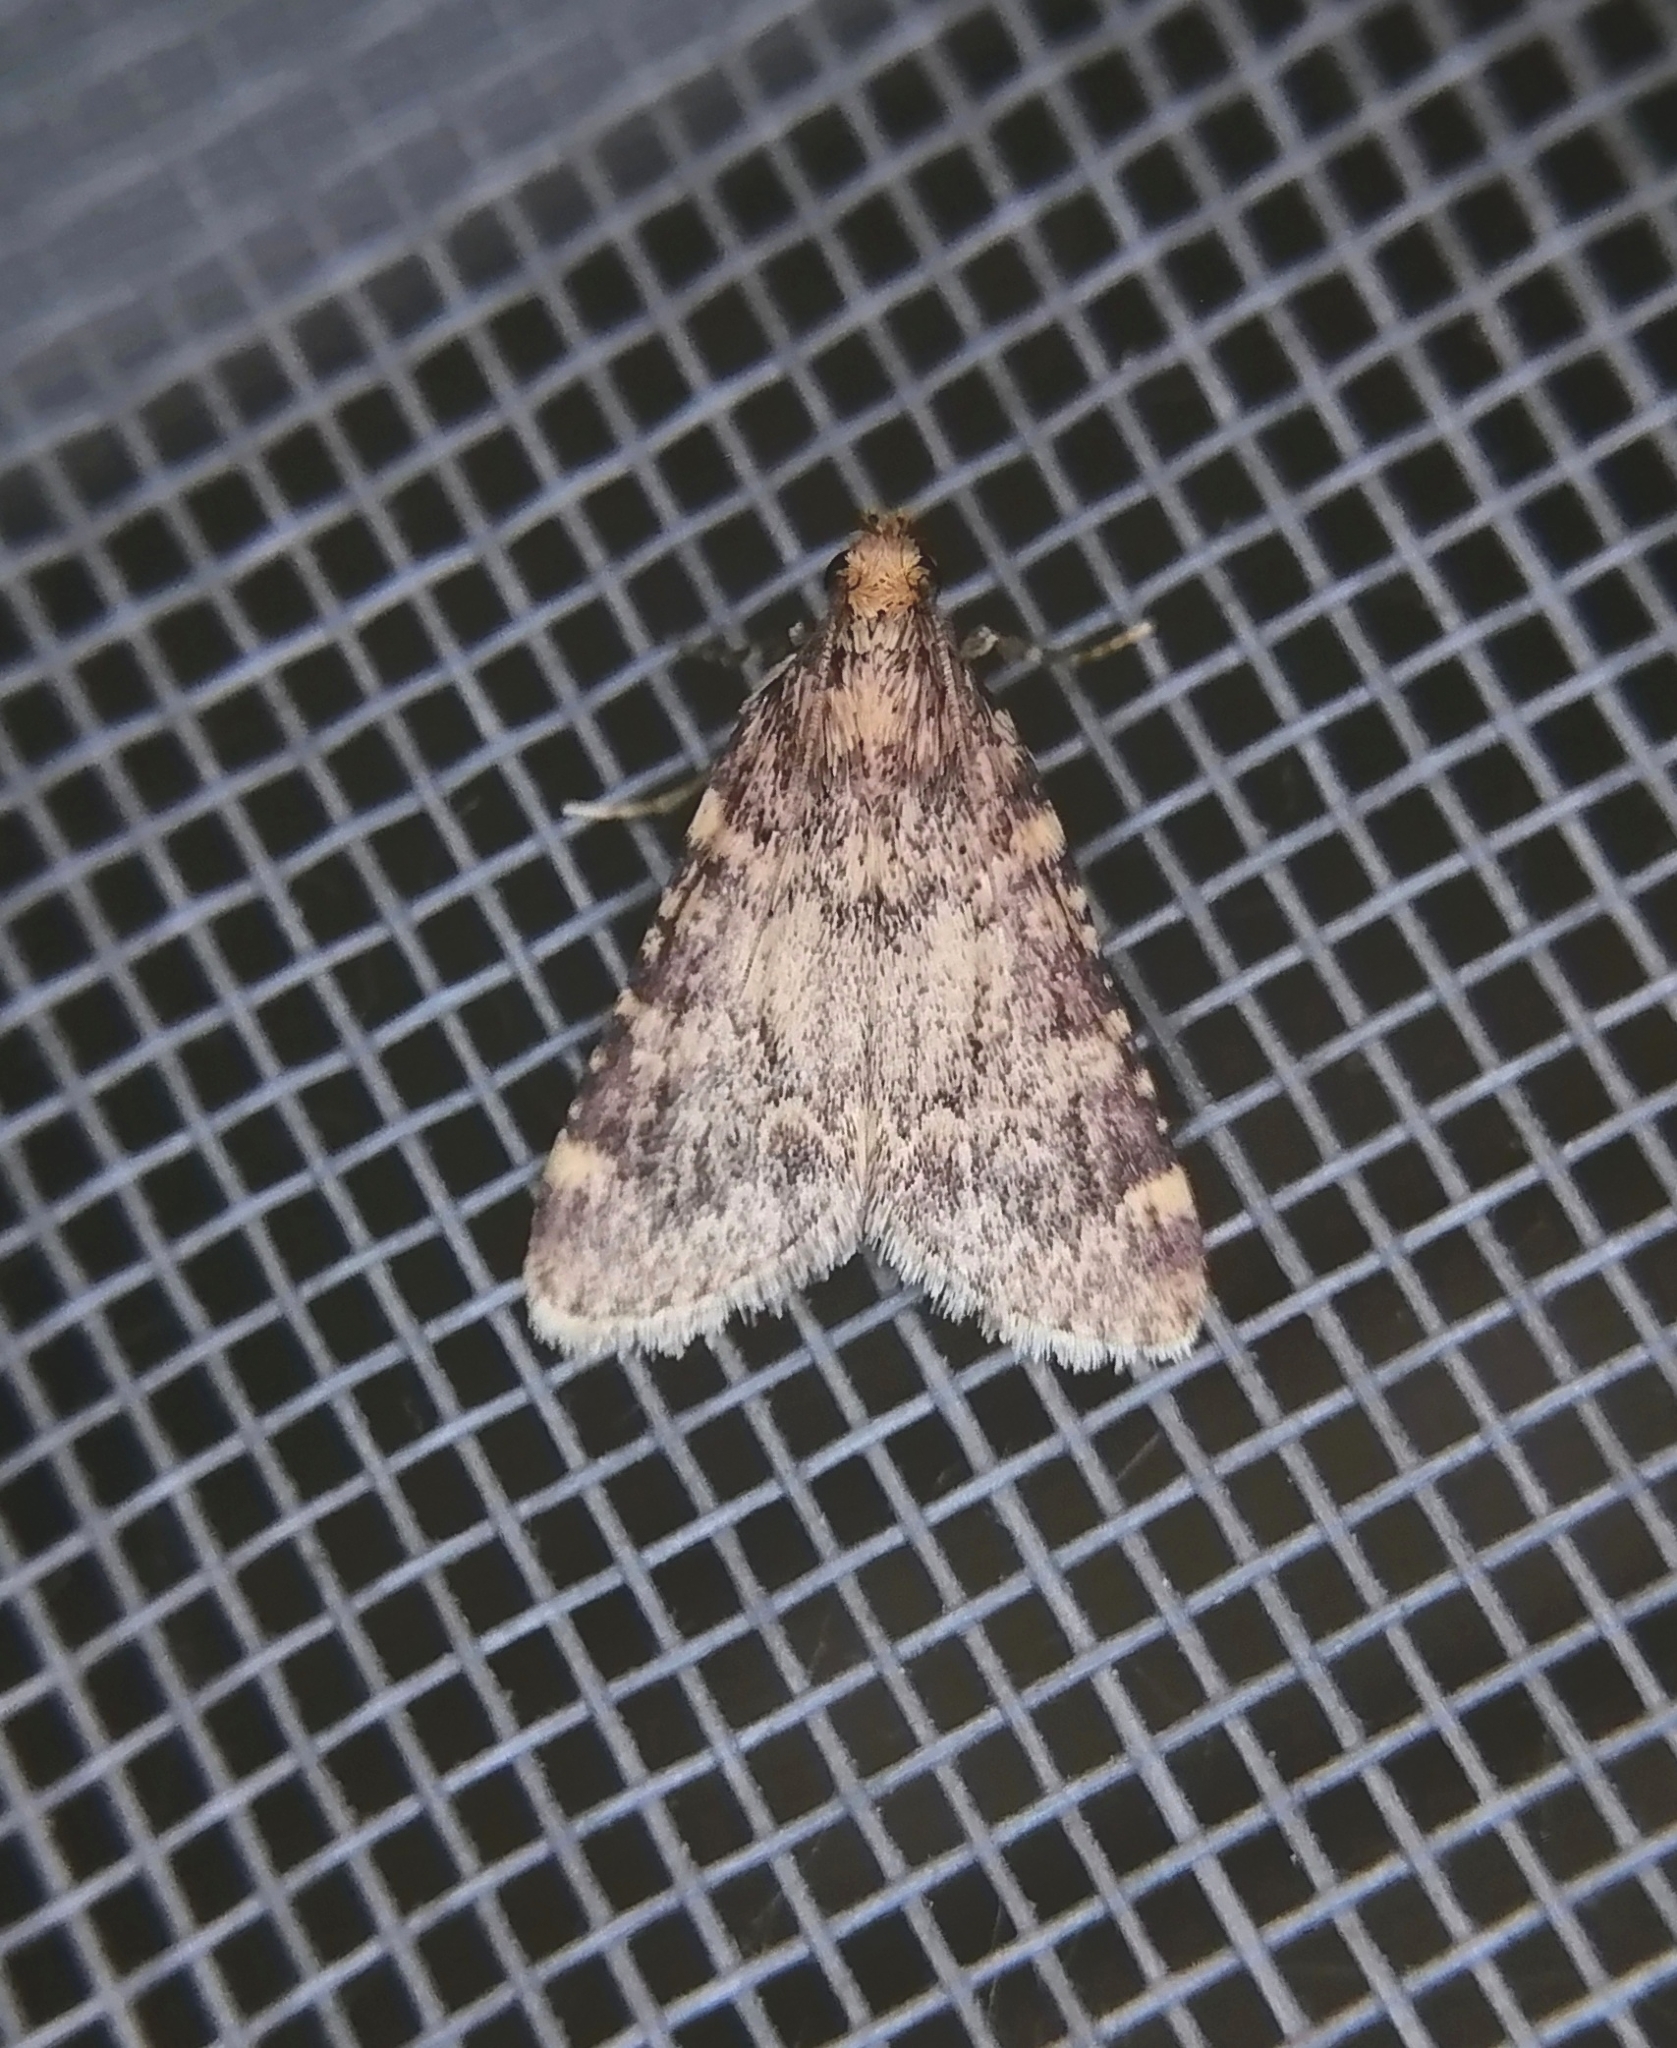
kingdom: Animalia
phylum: Arthropoda
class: Insecta
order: Lepidoptera
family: Pyralidae
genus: Aglossa
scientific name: Aglossa caprealis
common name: Small tabby
